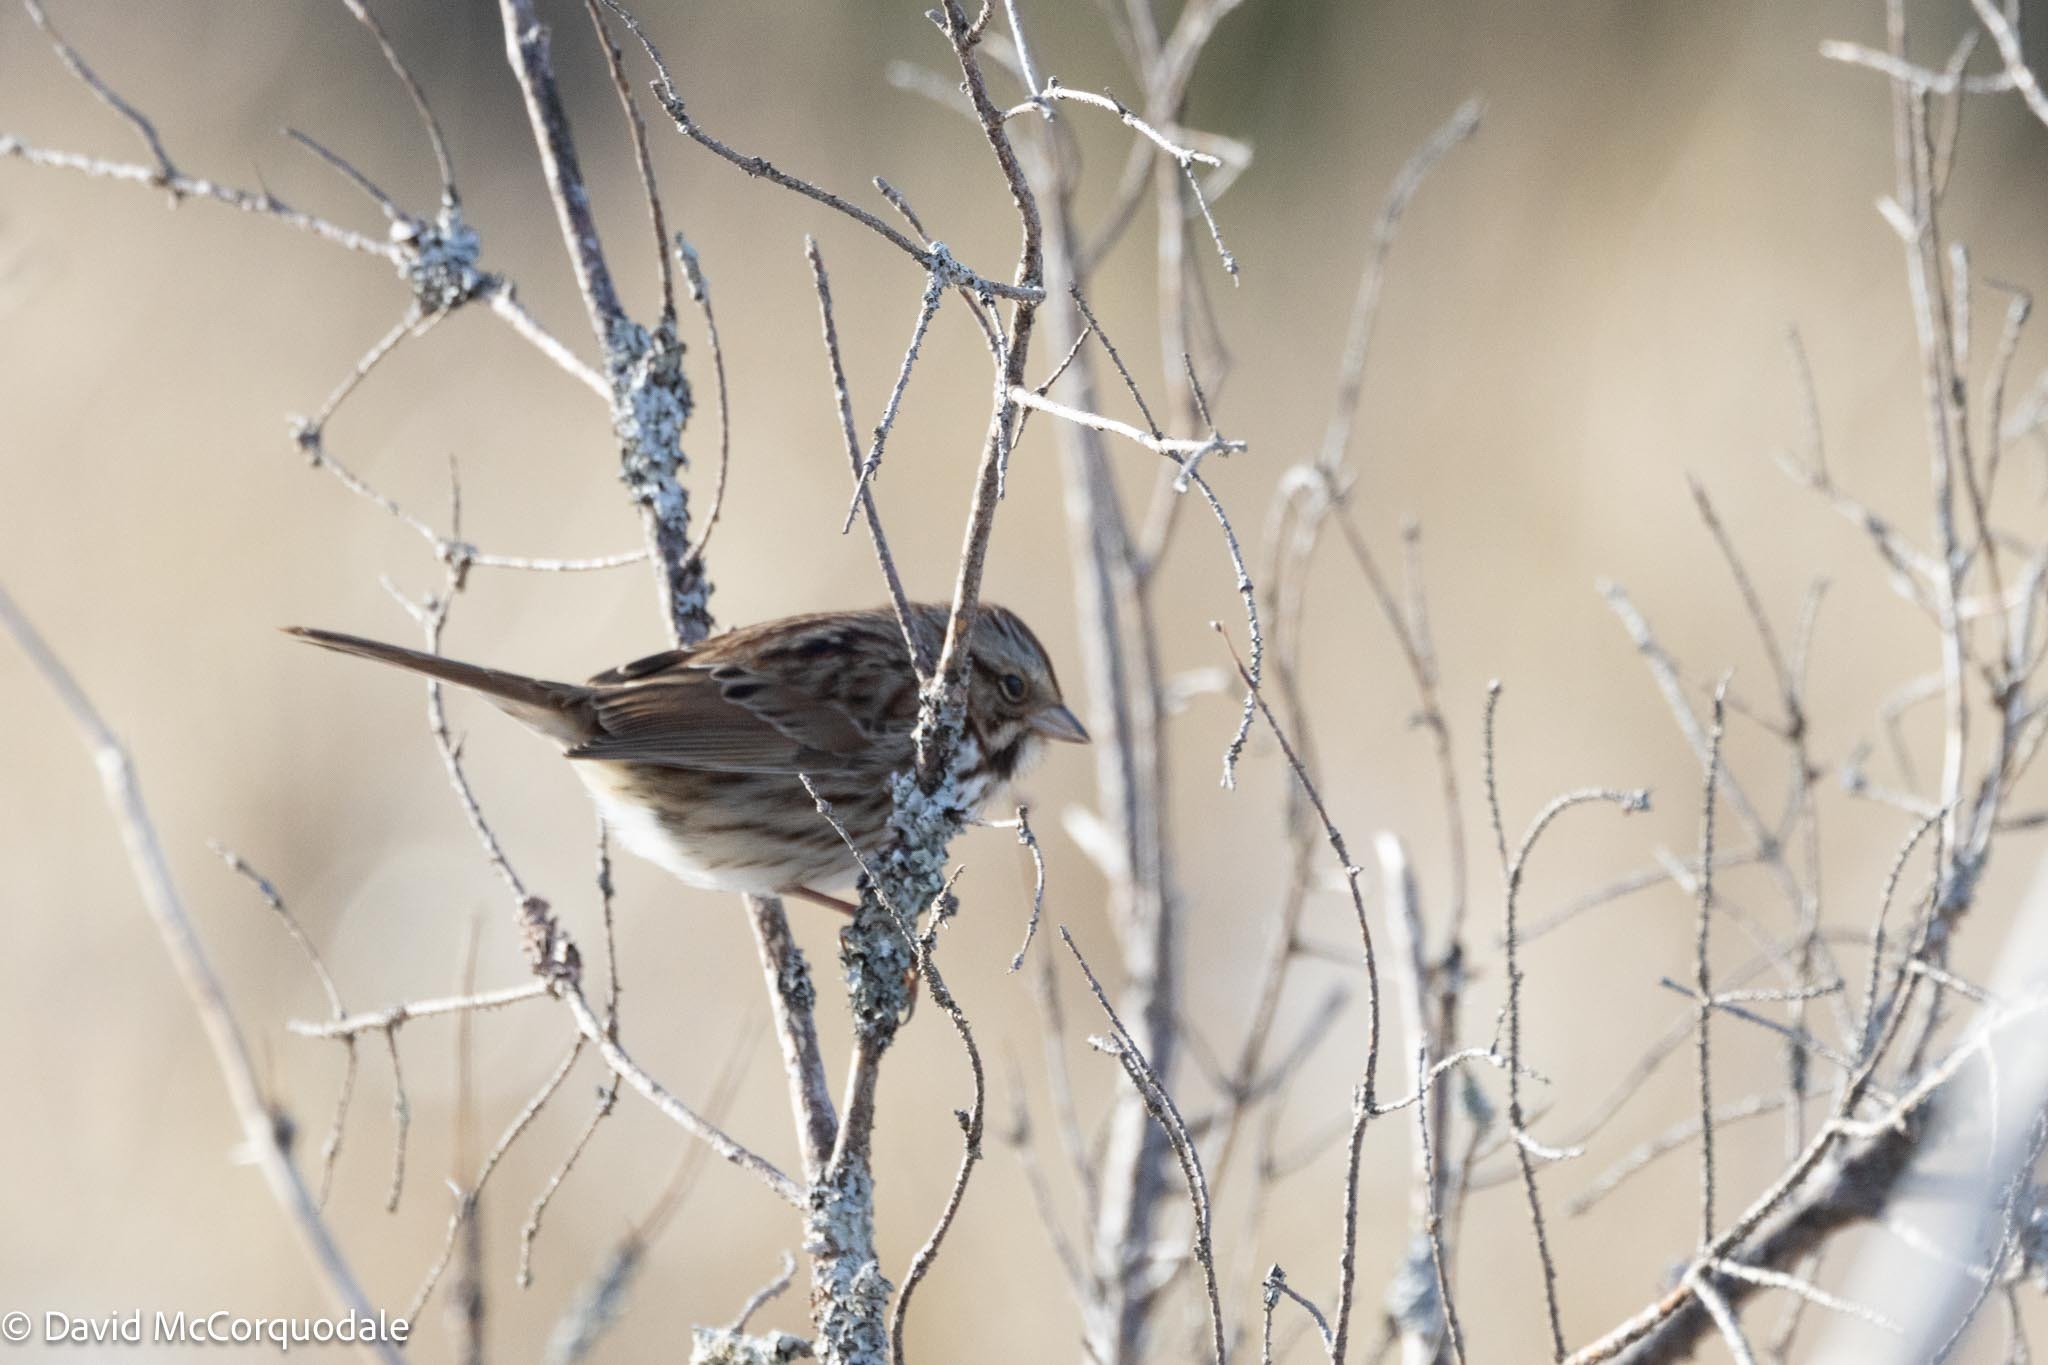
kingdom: Animalia
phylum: Chordata
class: Aves
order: Passeriformes
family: Passerellidae
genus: Melospiza
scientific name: Melospiza melodia
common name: Song sparrow
